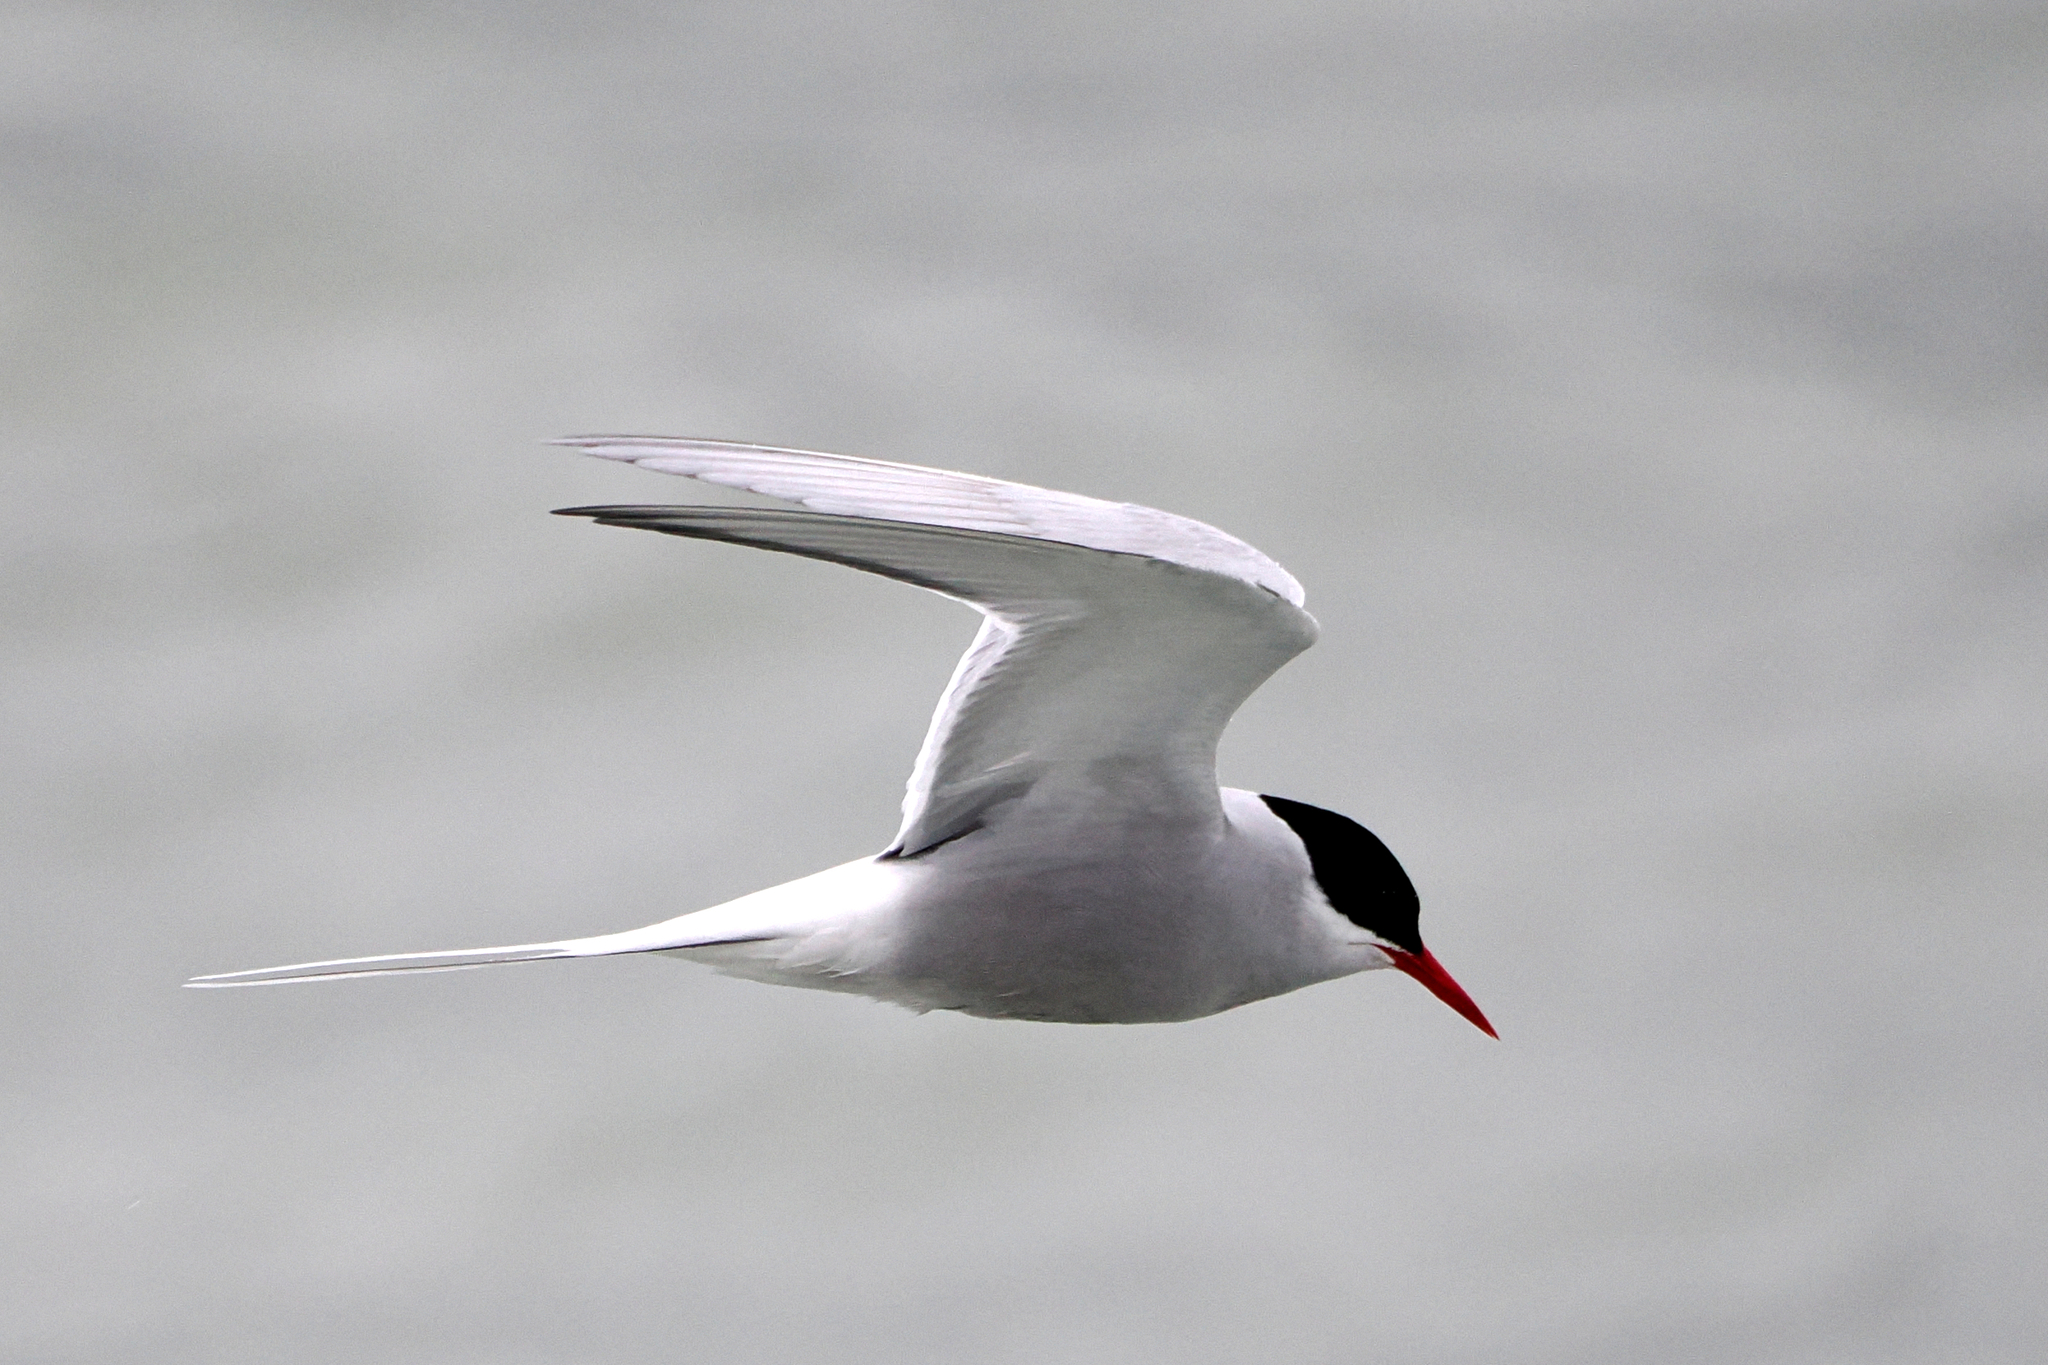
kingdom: Animalia
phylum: Chordata
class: Aves
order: Charadriiformes
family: Laridae
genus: Sterna
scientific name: Sterna paradisaea
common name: Arctic tern
